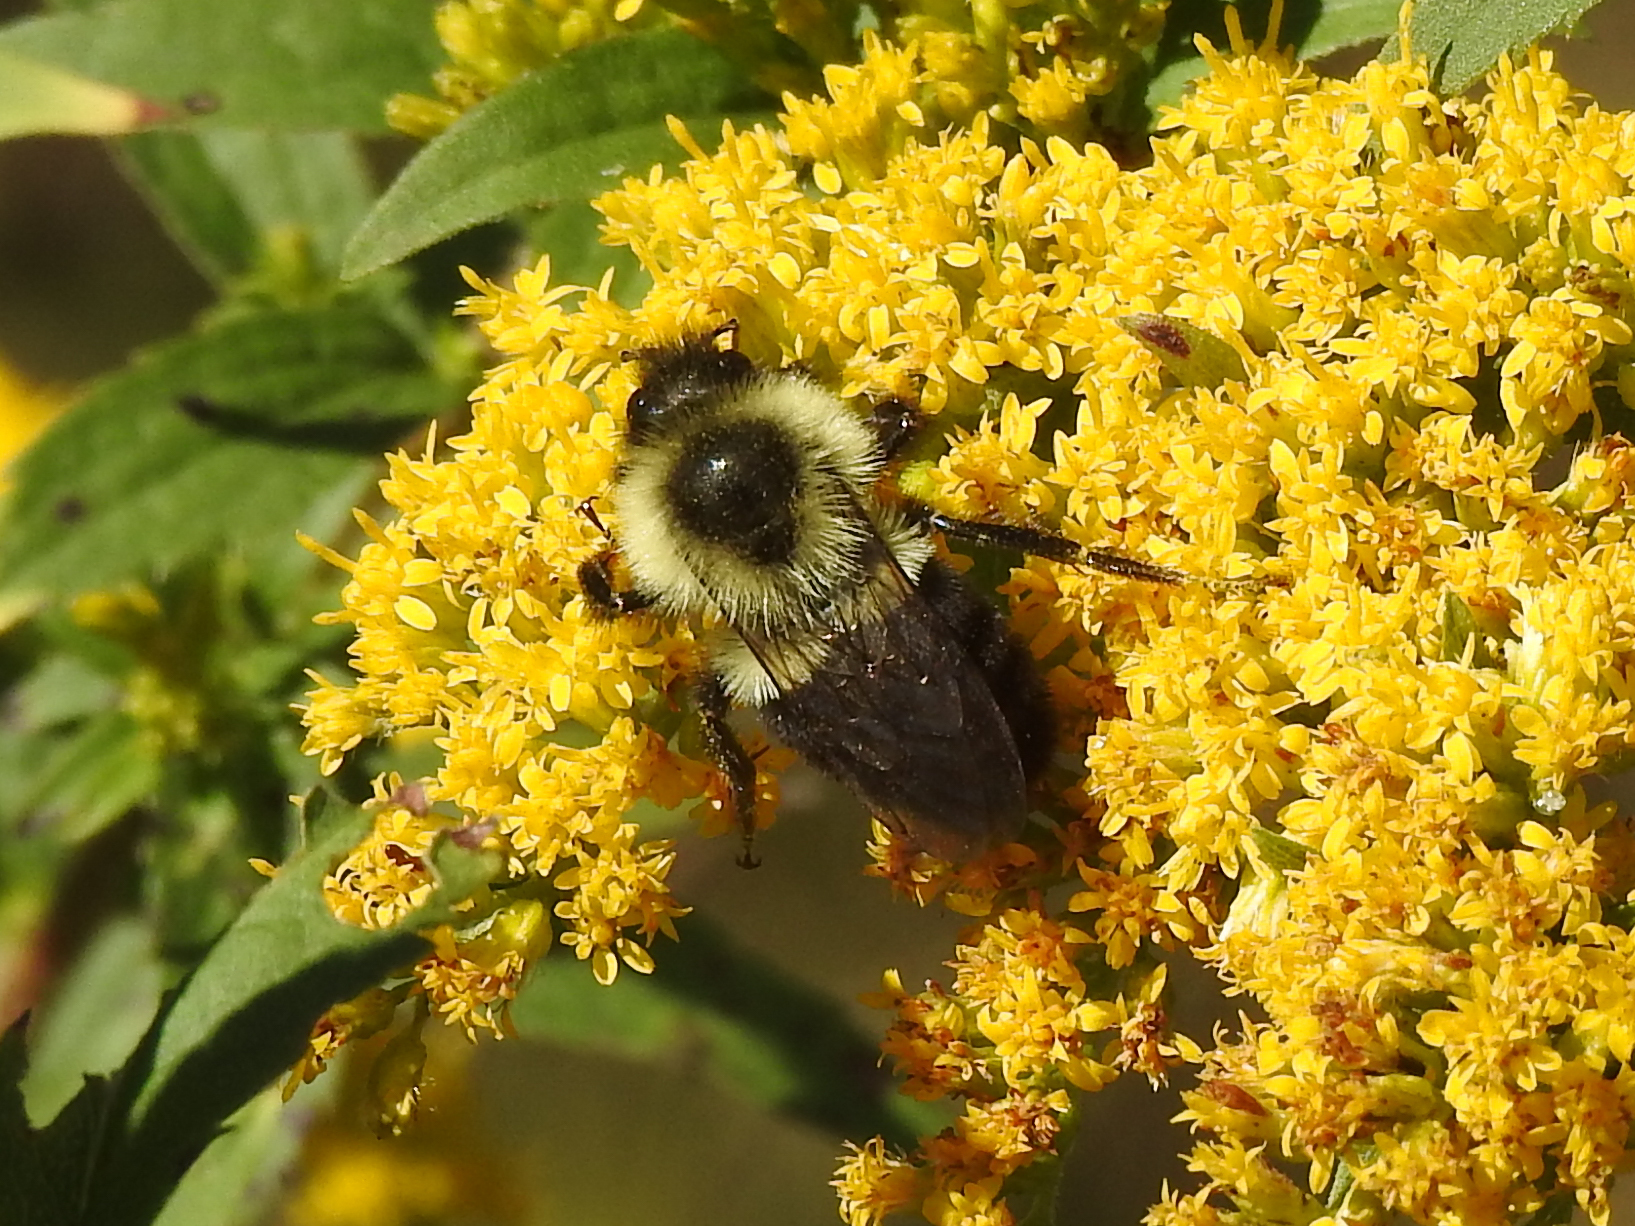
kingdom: Animalia
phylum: Arthropoda
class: Insecta
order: Hymenoptera
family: Apidae
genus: Bombus
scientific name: Bombus impatiens
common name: Common eastern bumble bee
